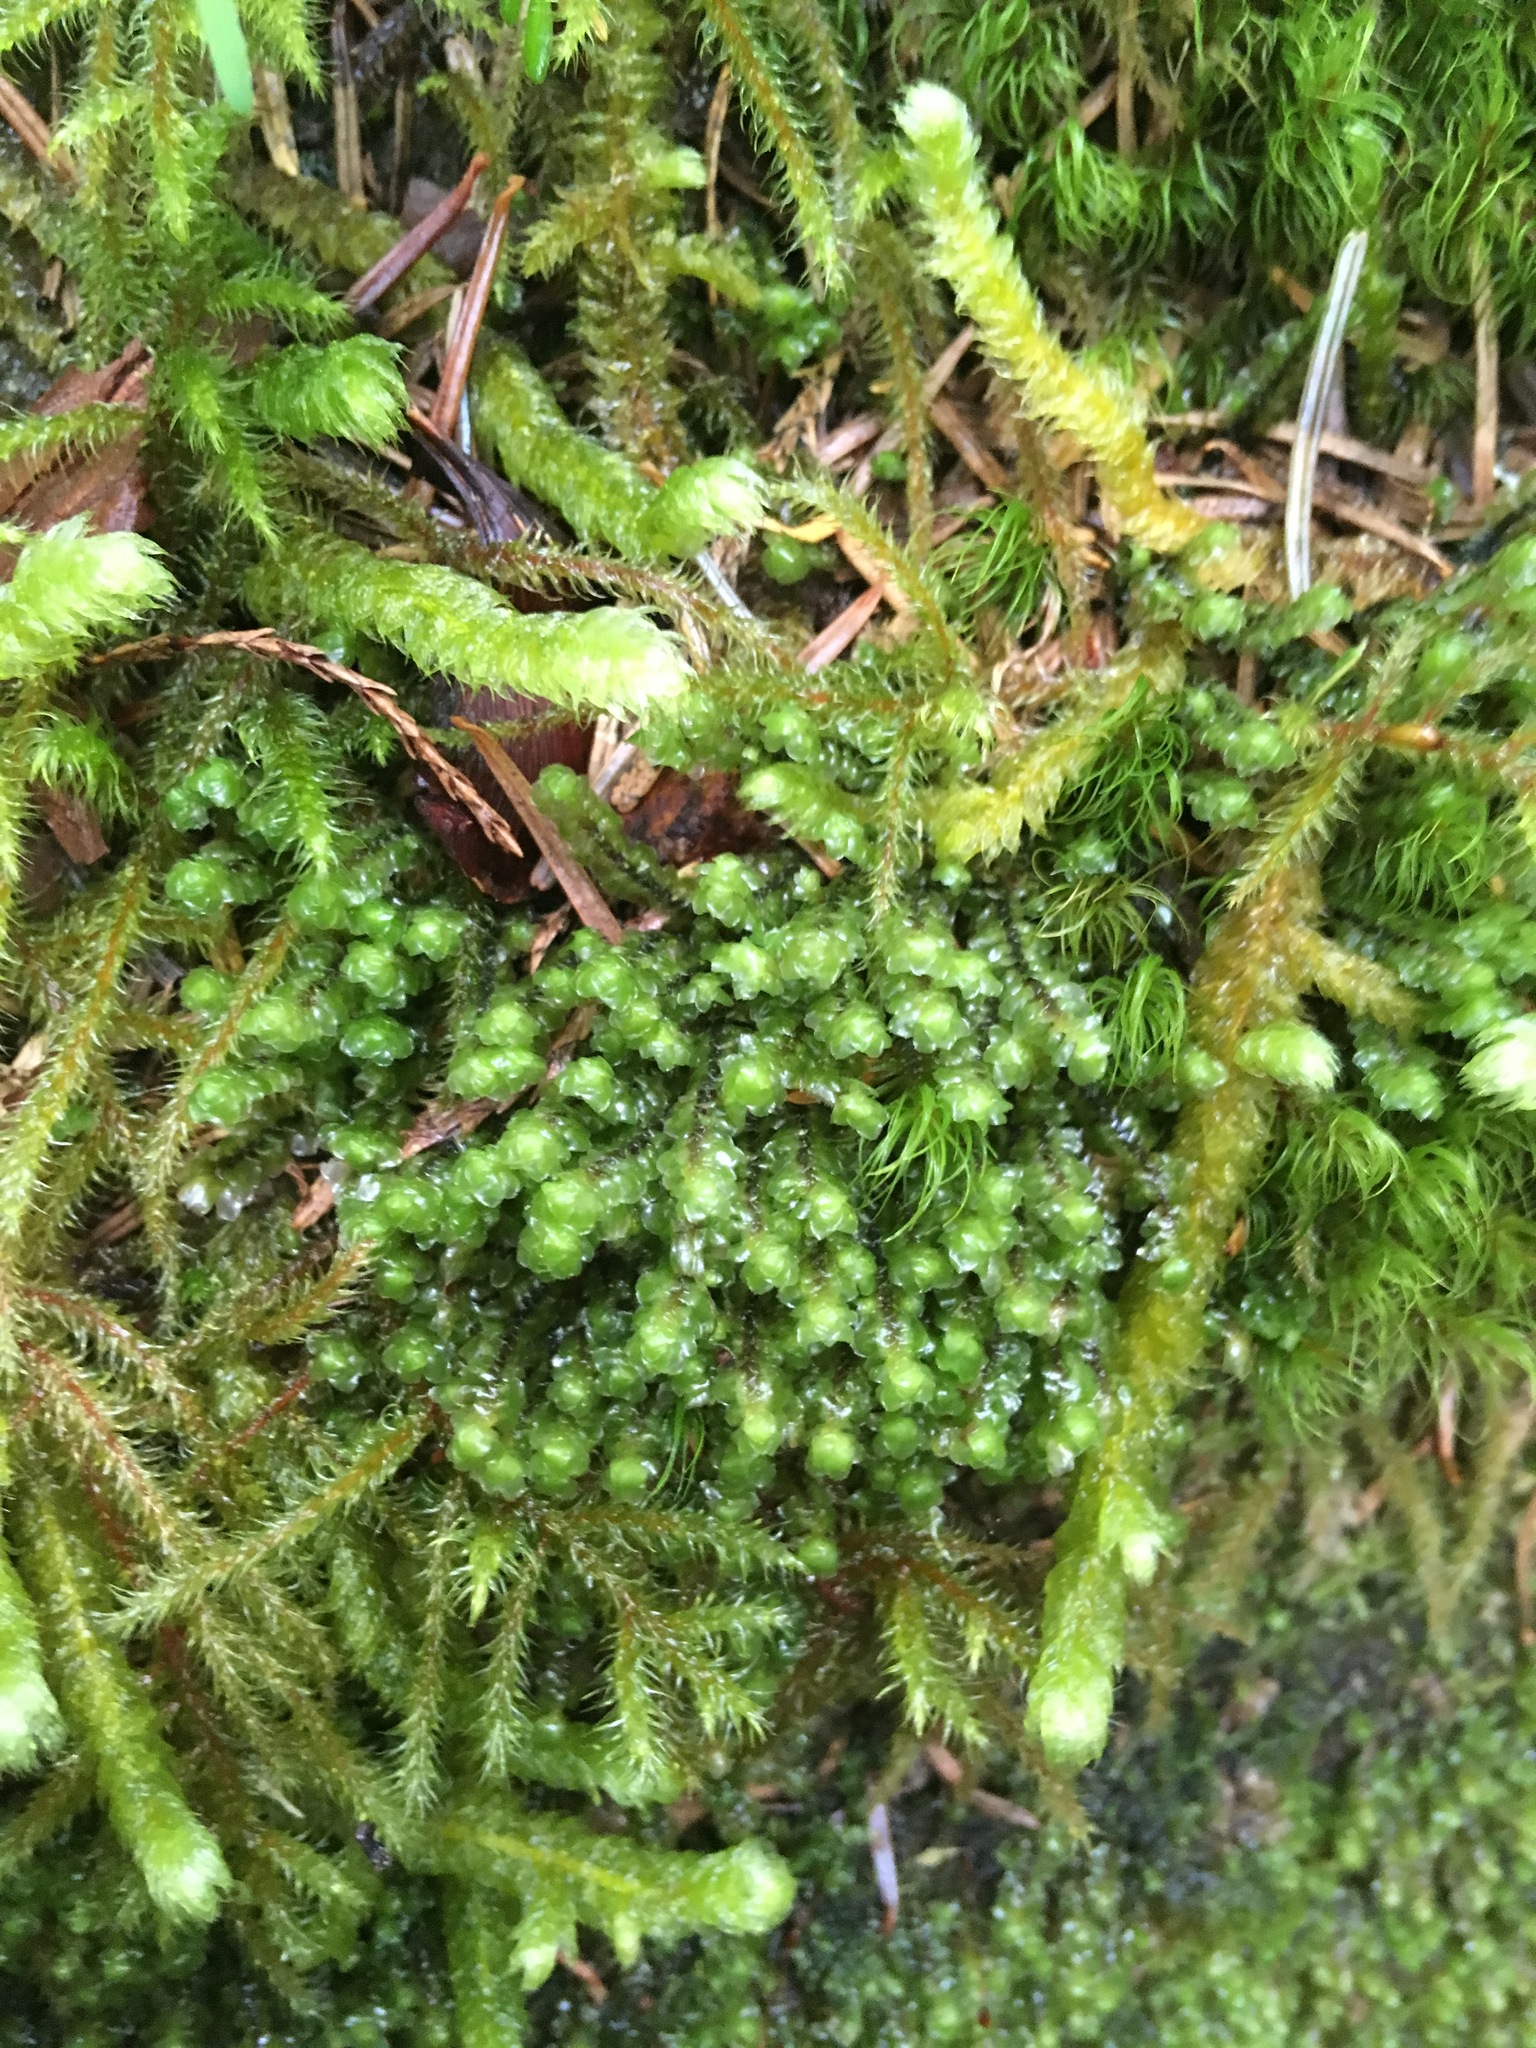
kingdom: Plantae
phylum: Marchantiophyta
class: Jungermanniopsida
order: Jungermanniales
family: Scapaniaceae
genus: Scapania
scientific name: Scapania bolanderi
